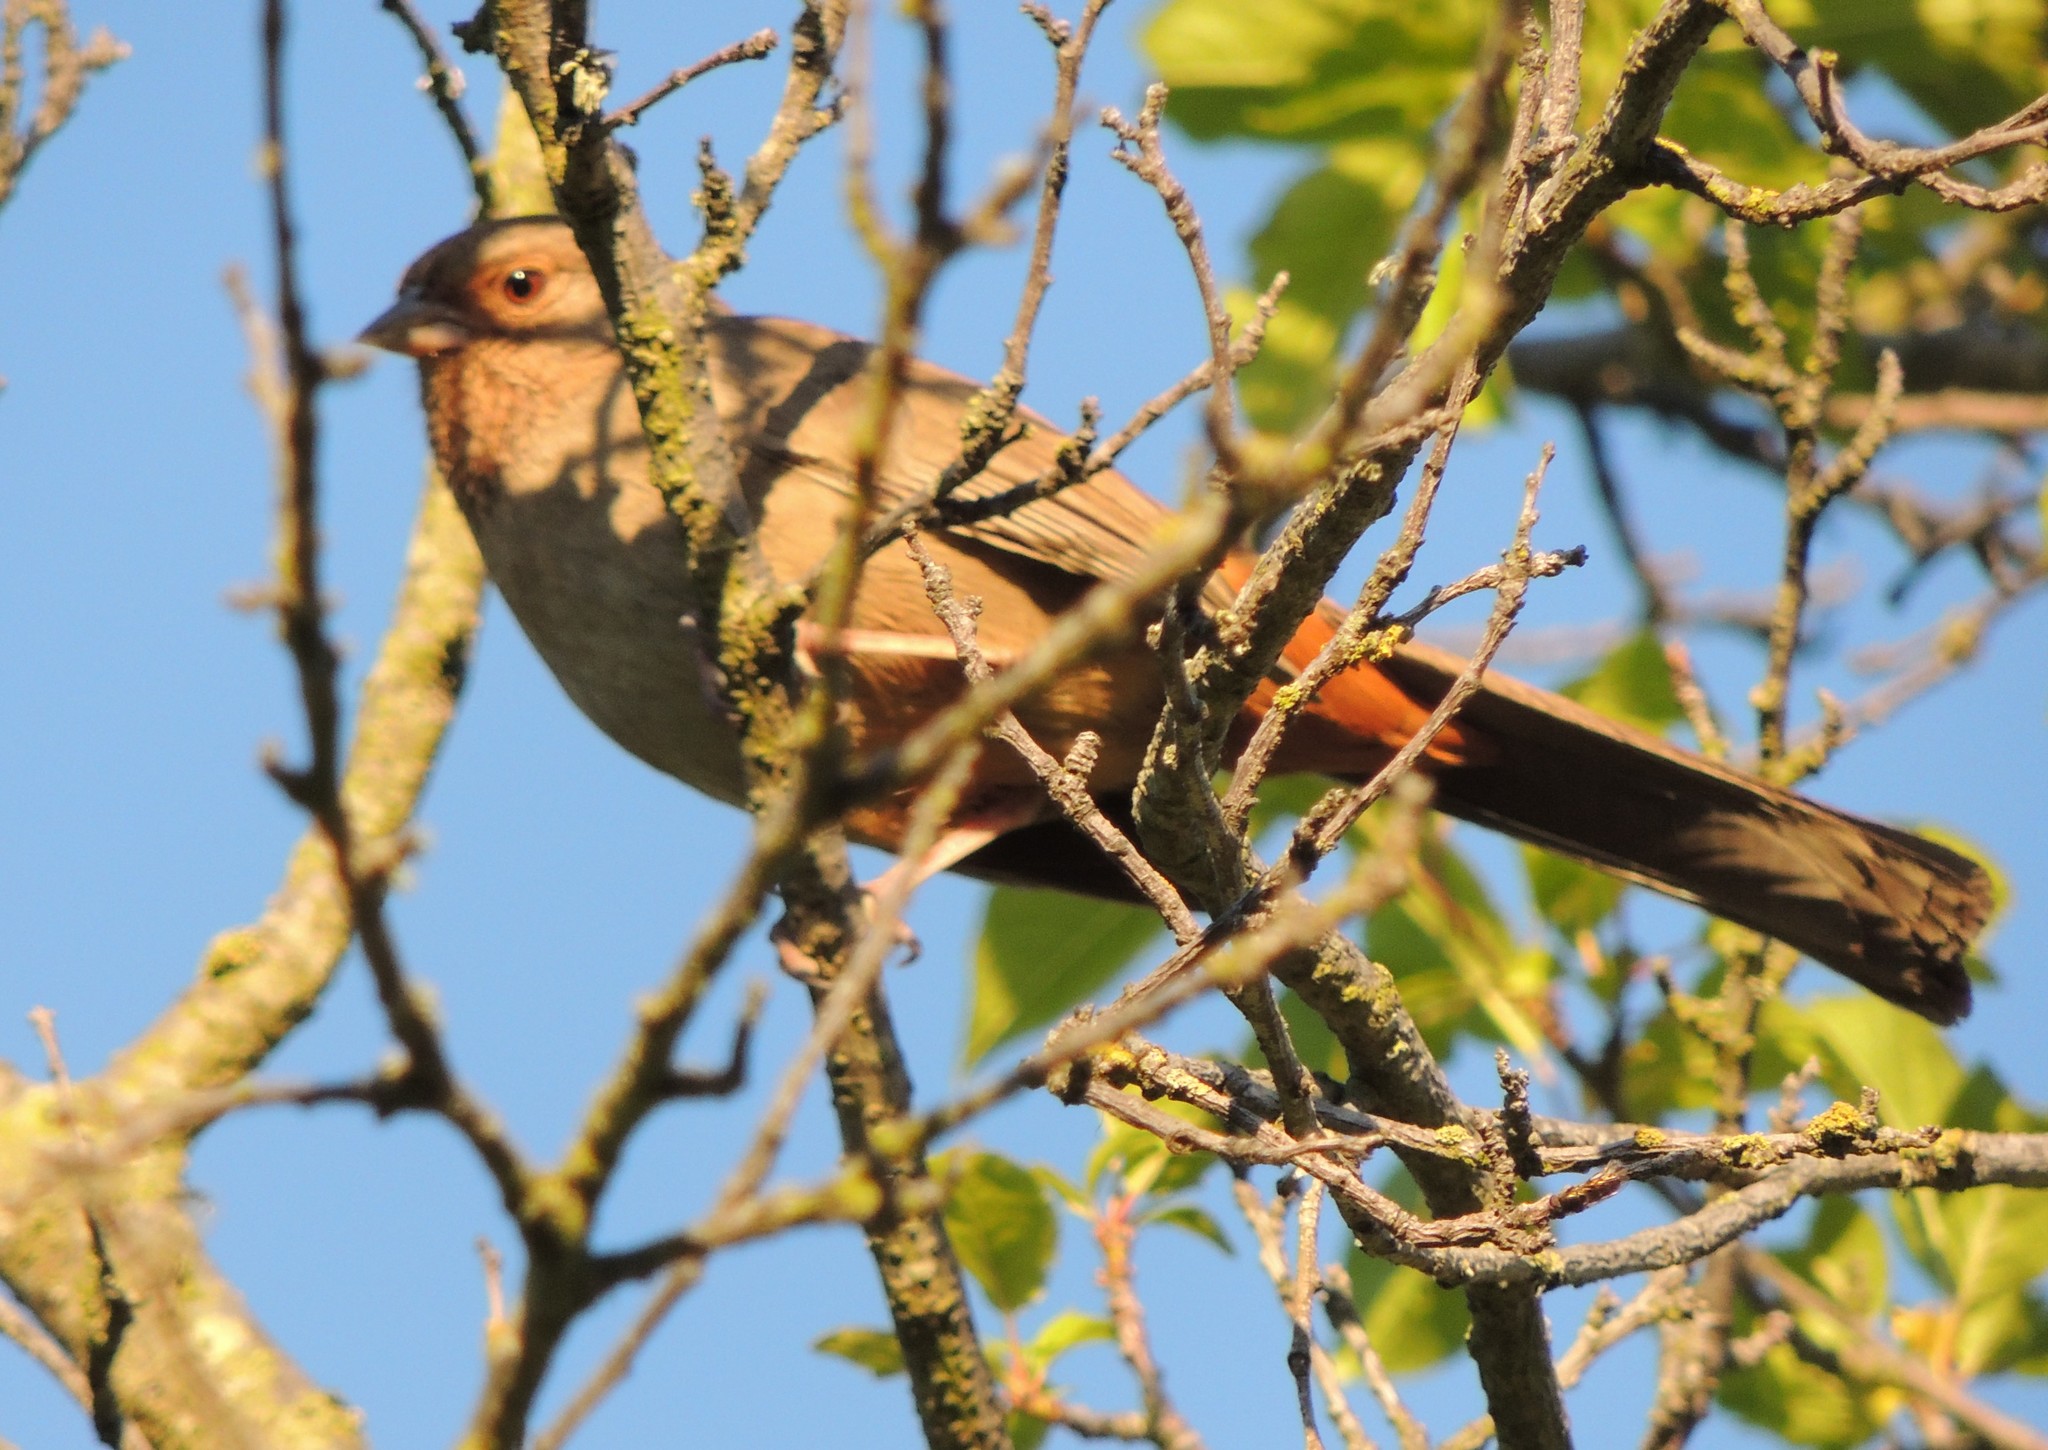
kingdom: Animalia
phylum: Chordata
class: Aves
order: Passeriformes
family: Passerellidae
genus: Melozone
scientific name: Melozone crissalis
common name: California towhee
